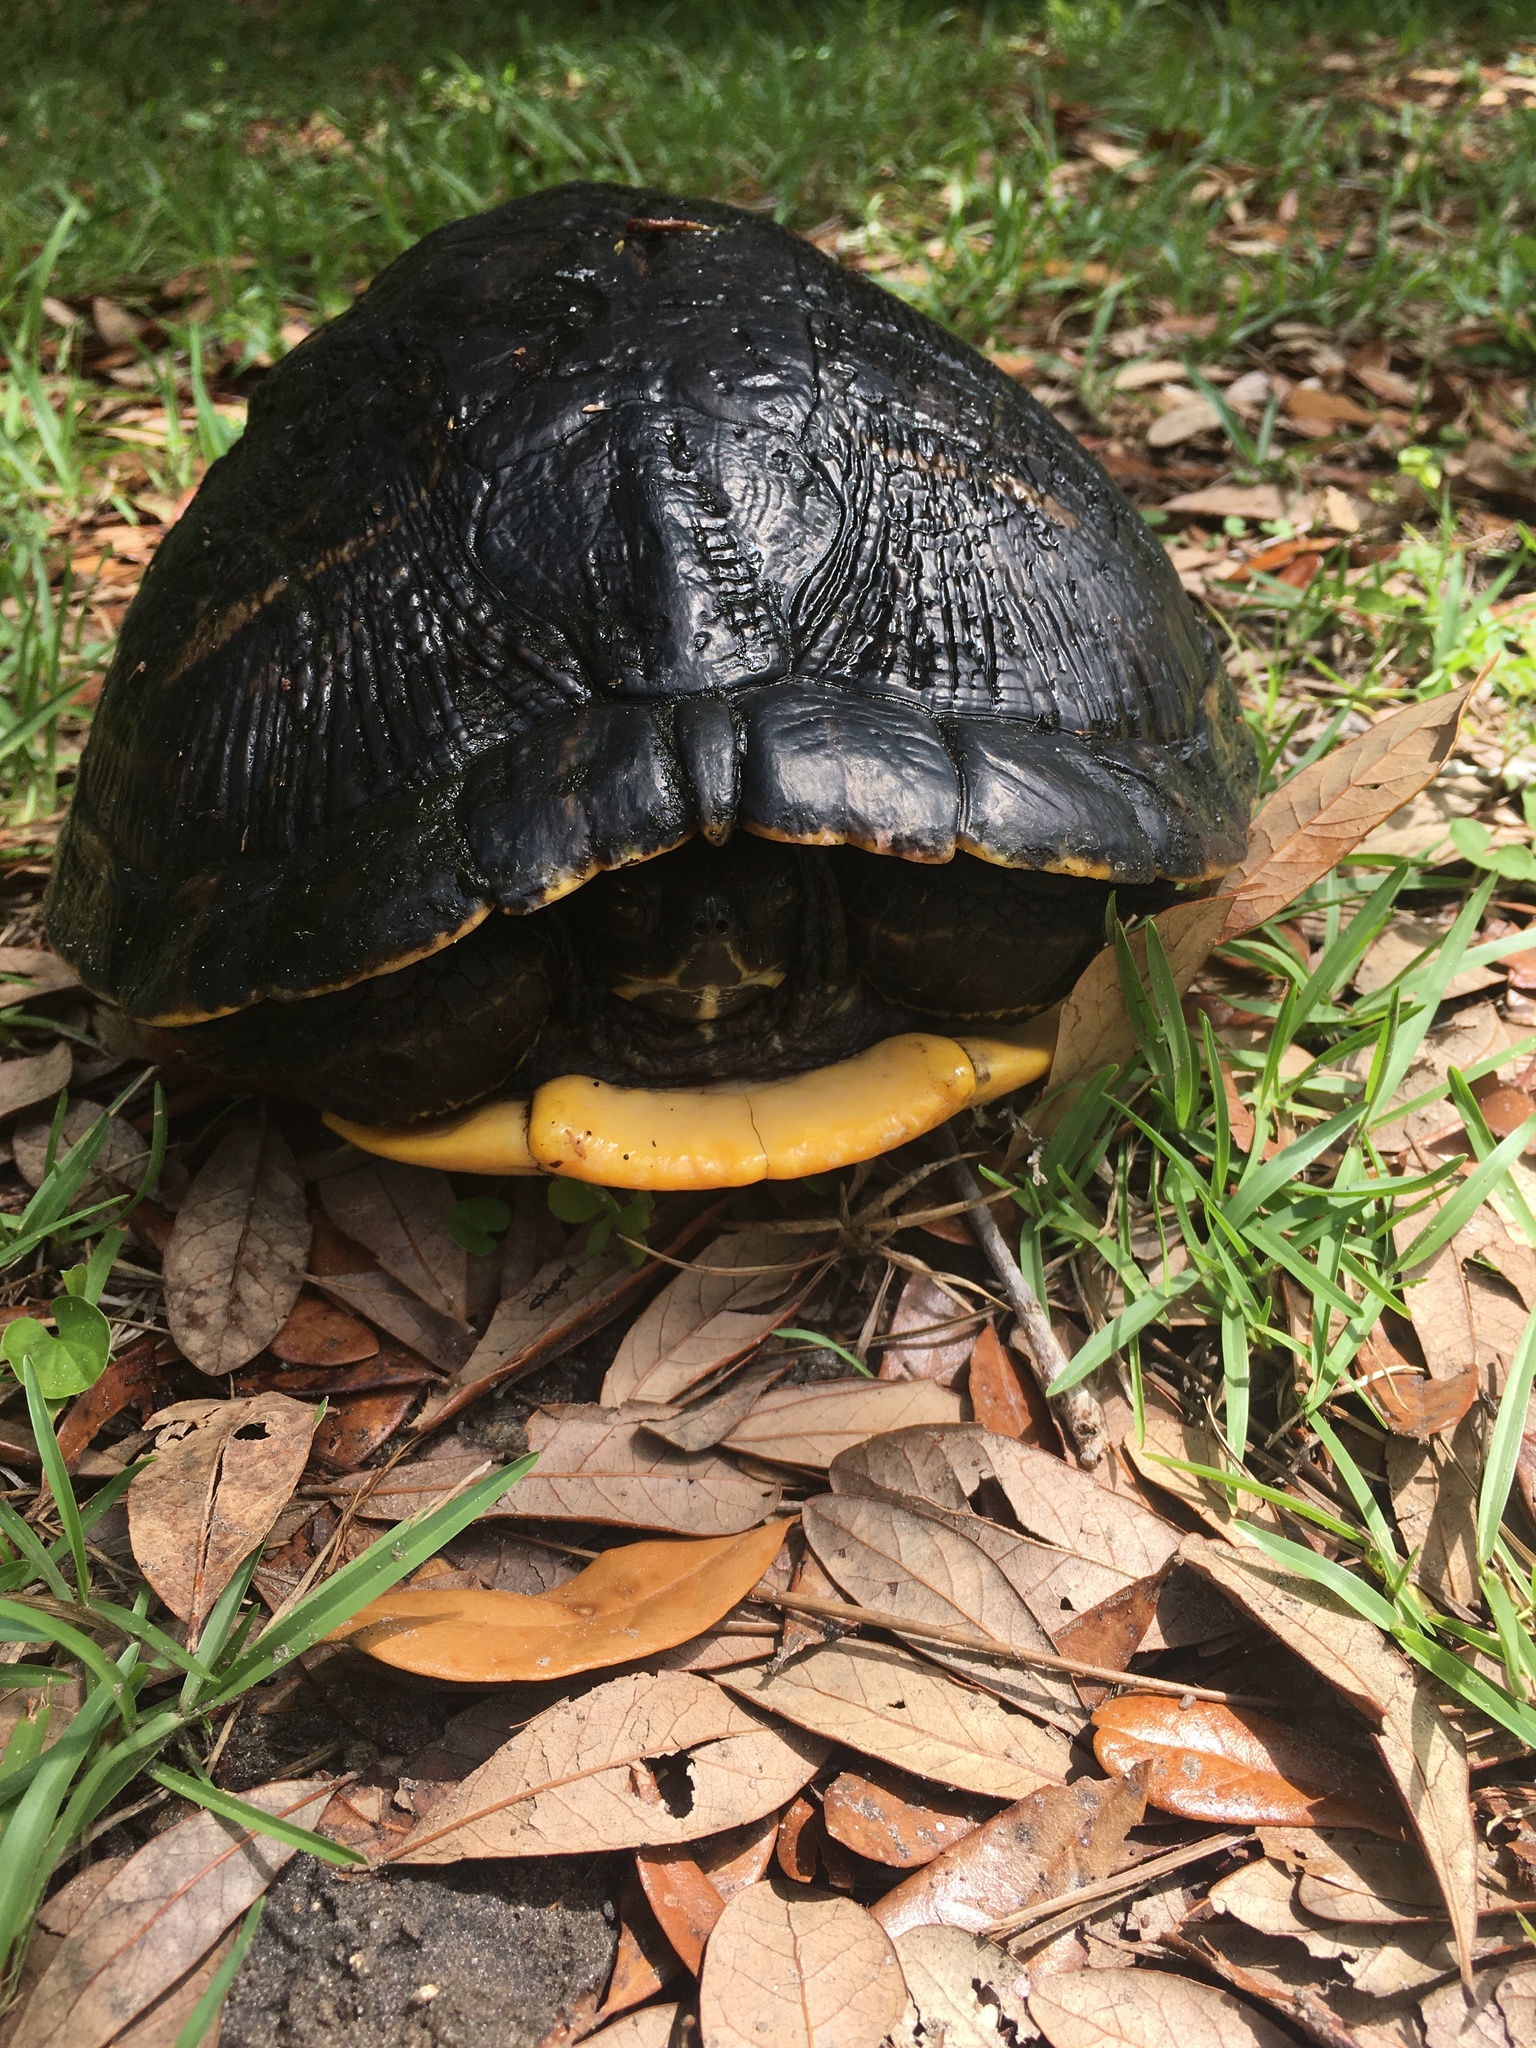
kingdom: Animalia
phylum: Chordata
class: Testudines
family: Emydidae
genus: Trachemys
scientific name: Trachemys scripta
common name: Slider
